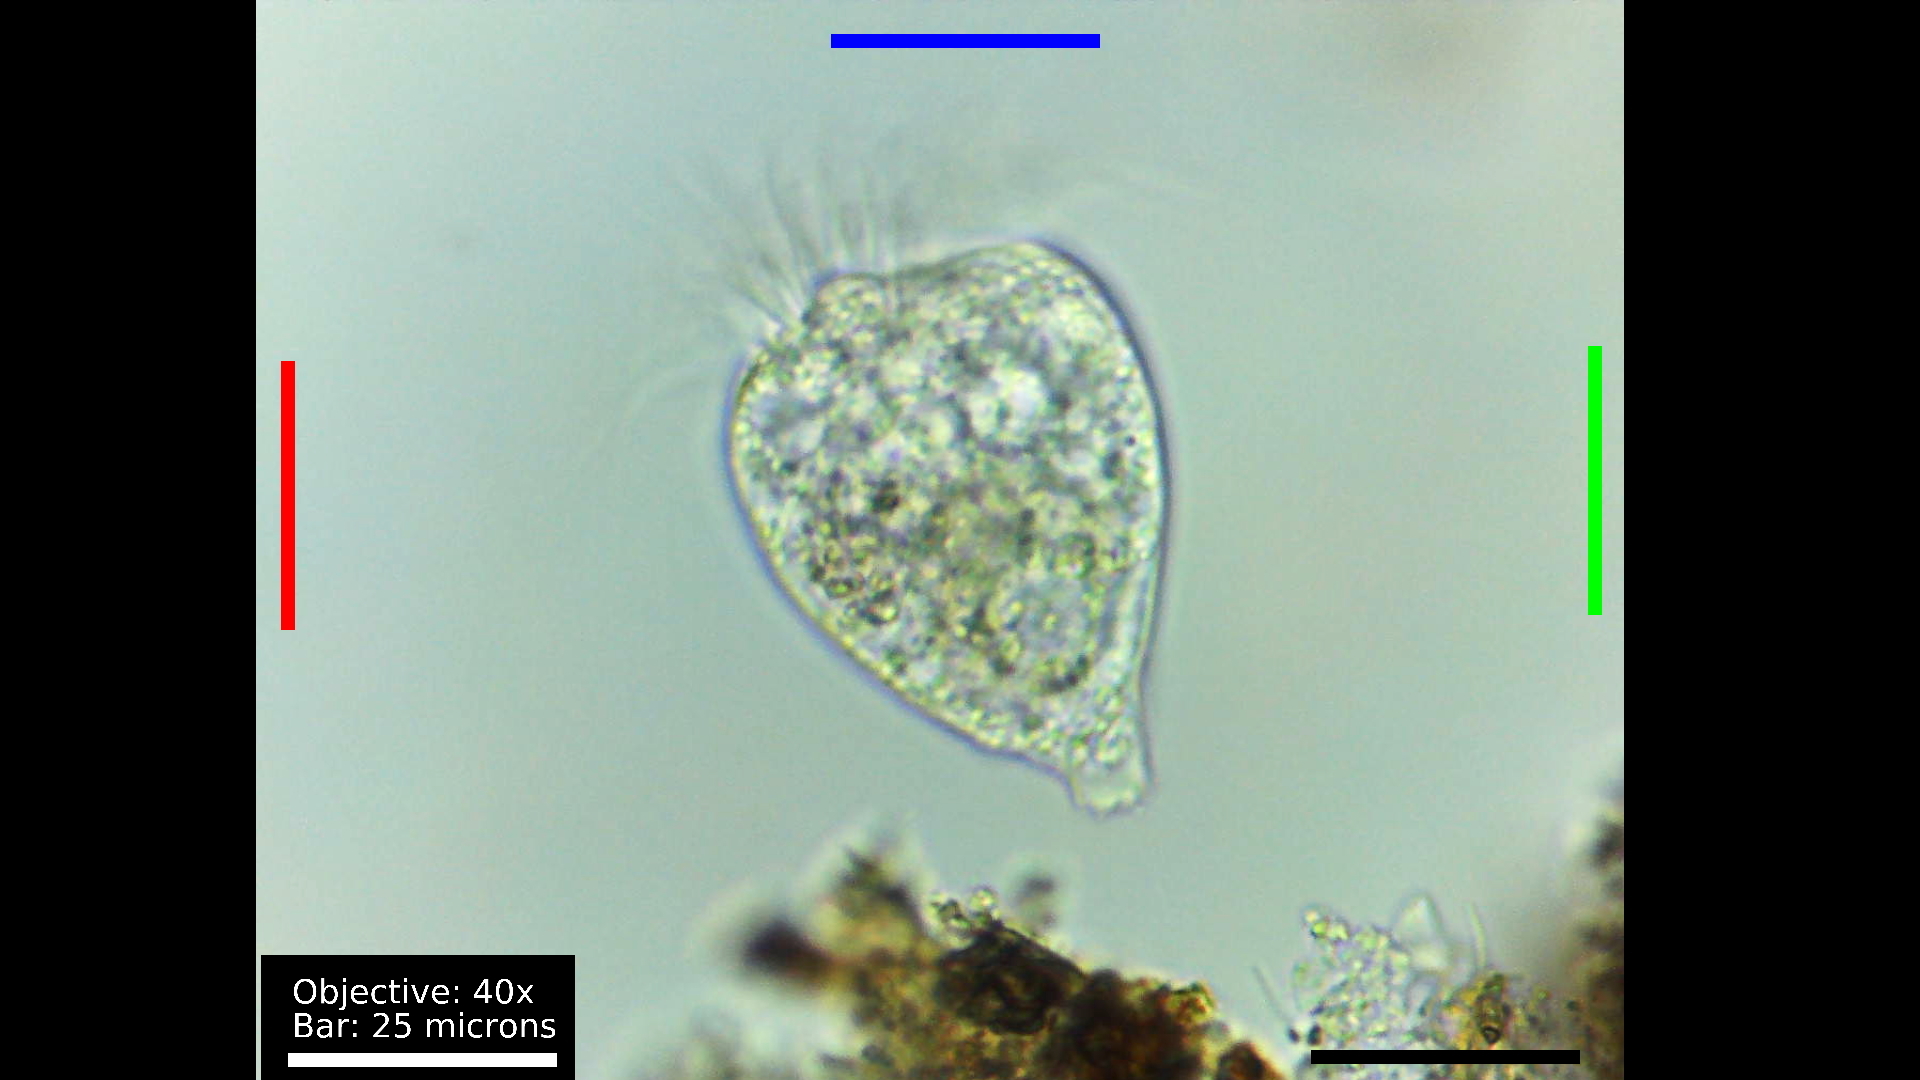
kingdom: Chromista
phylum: Ciliophora
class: Oligotrichea
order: Choreotrichida
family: Strobilidiidae
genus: Strobilidium
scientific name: Strobilidium caudatum
